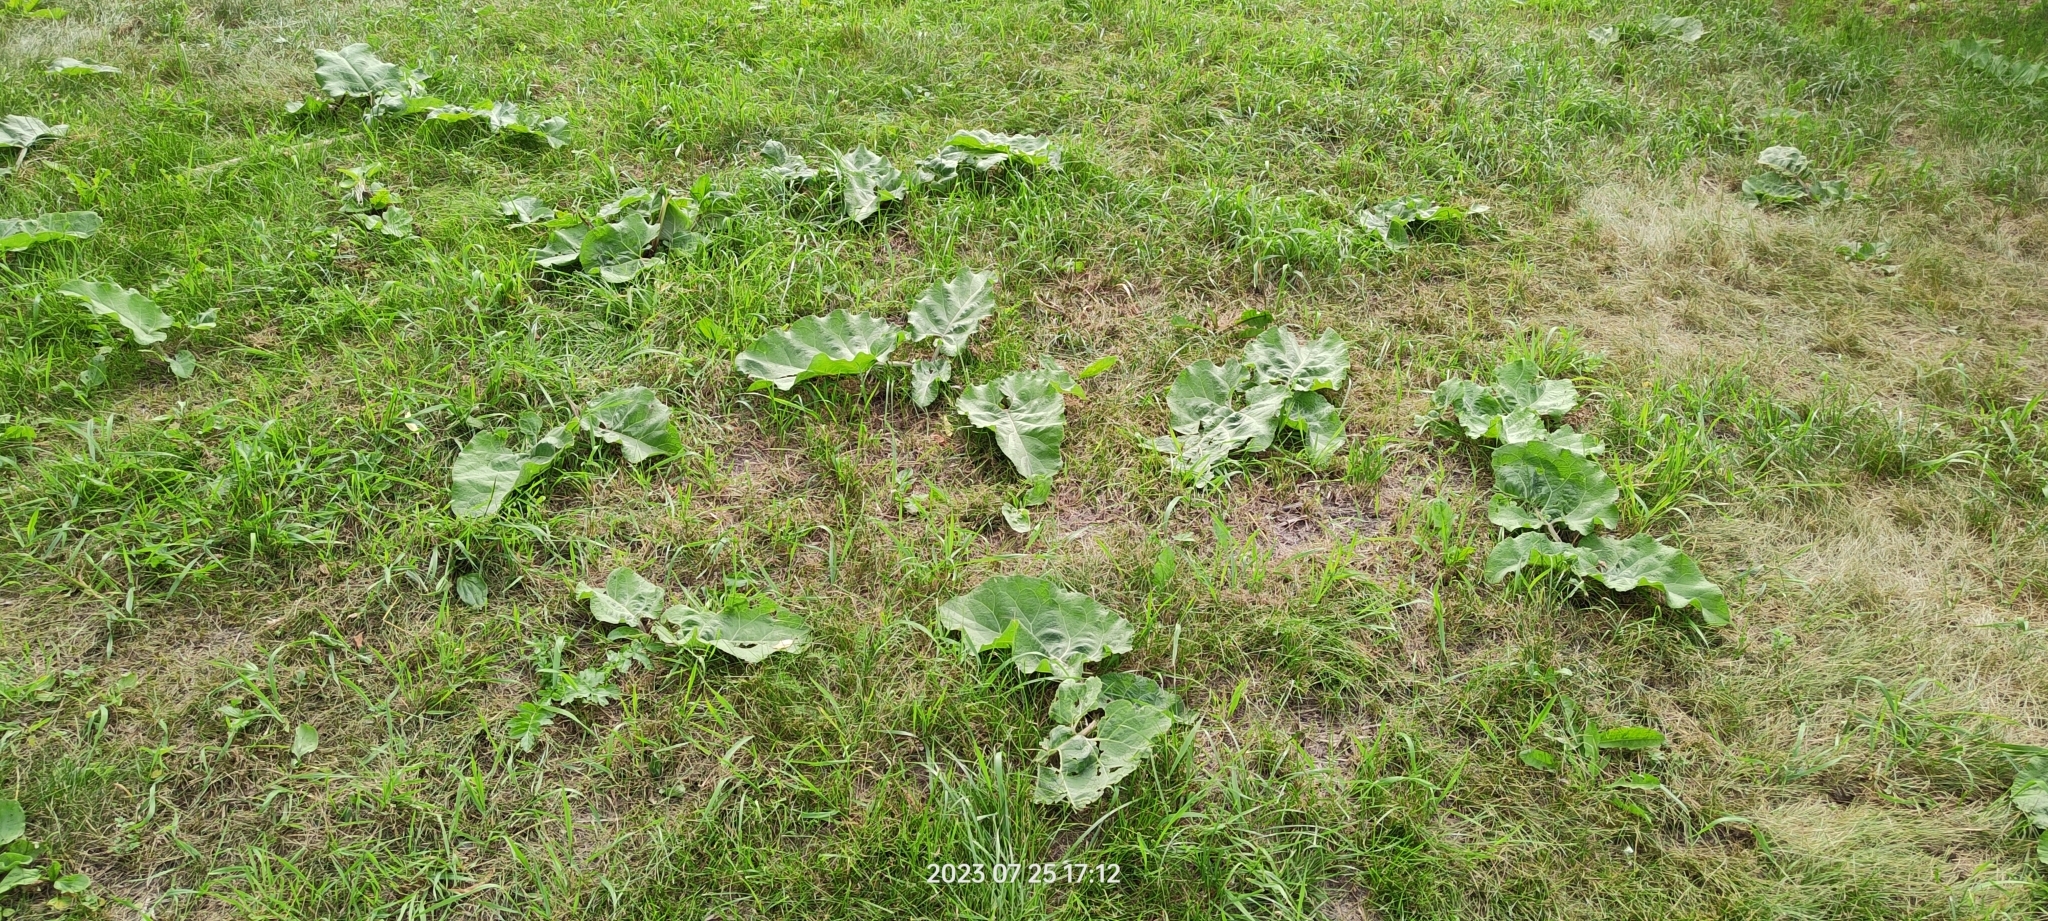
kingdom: Plantae
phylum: Tracheophyta
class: Magnoliopsida
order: Asterales
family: Asteraceae
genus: Arctium
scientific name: Arctium
